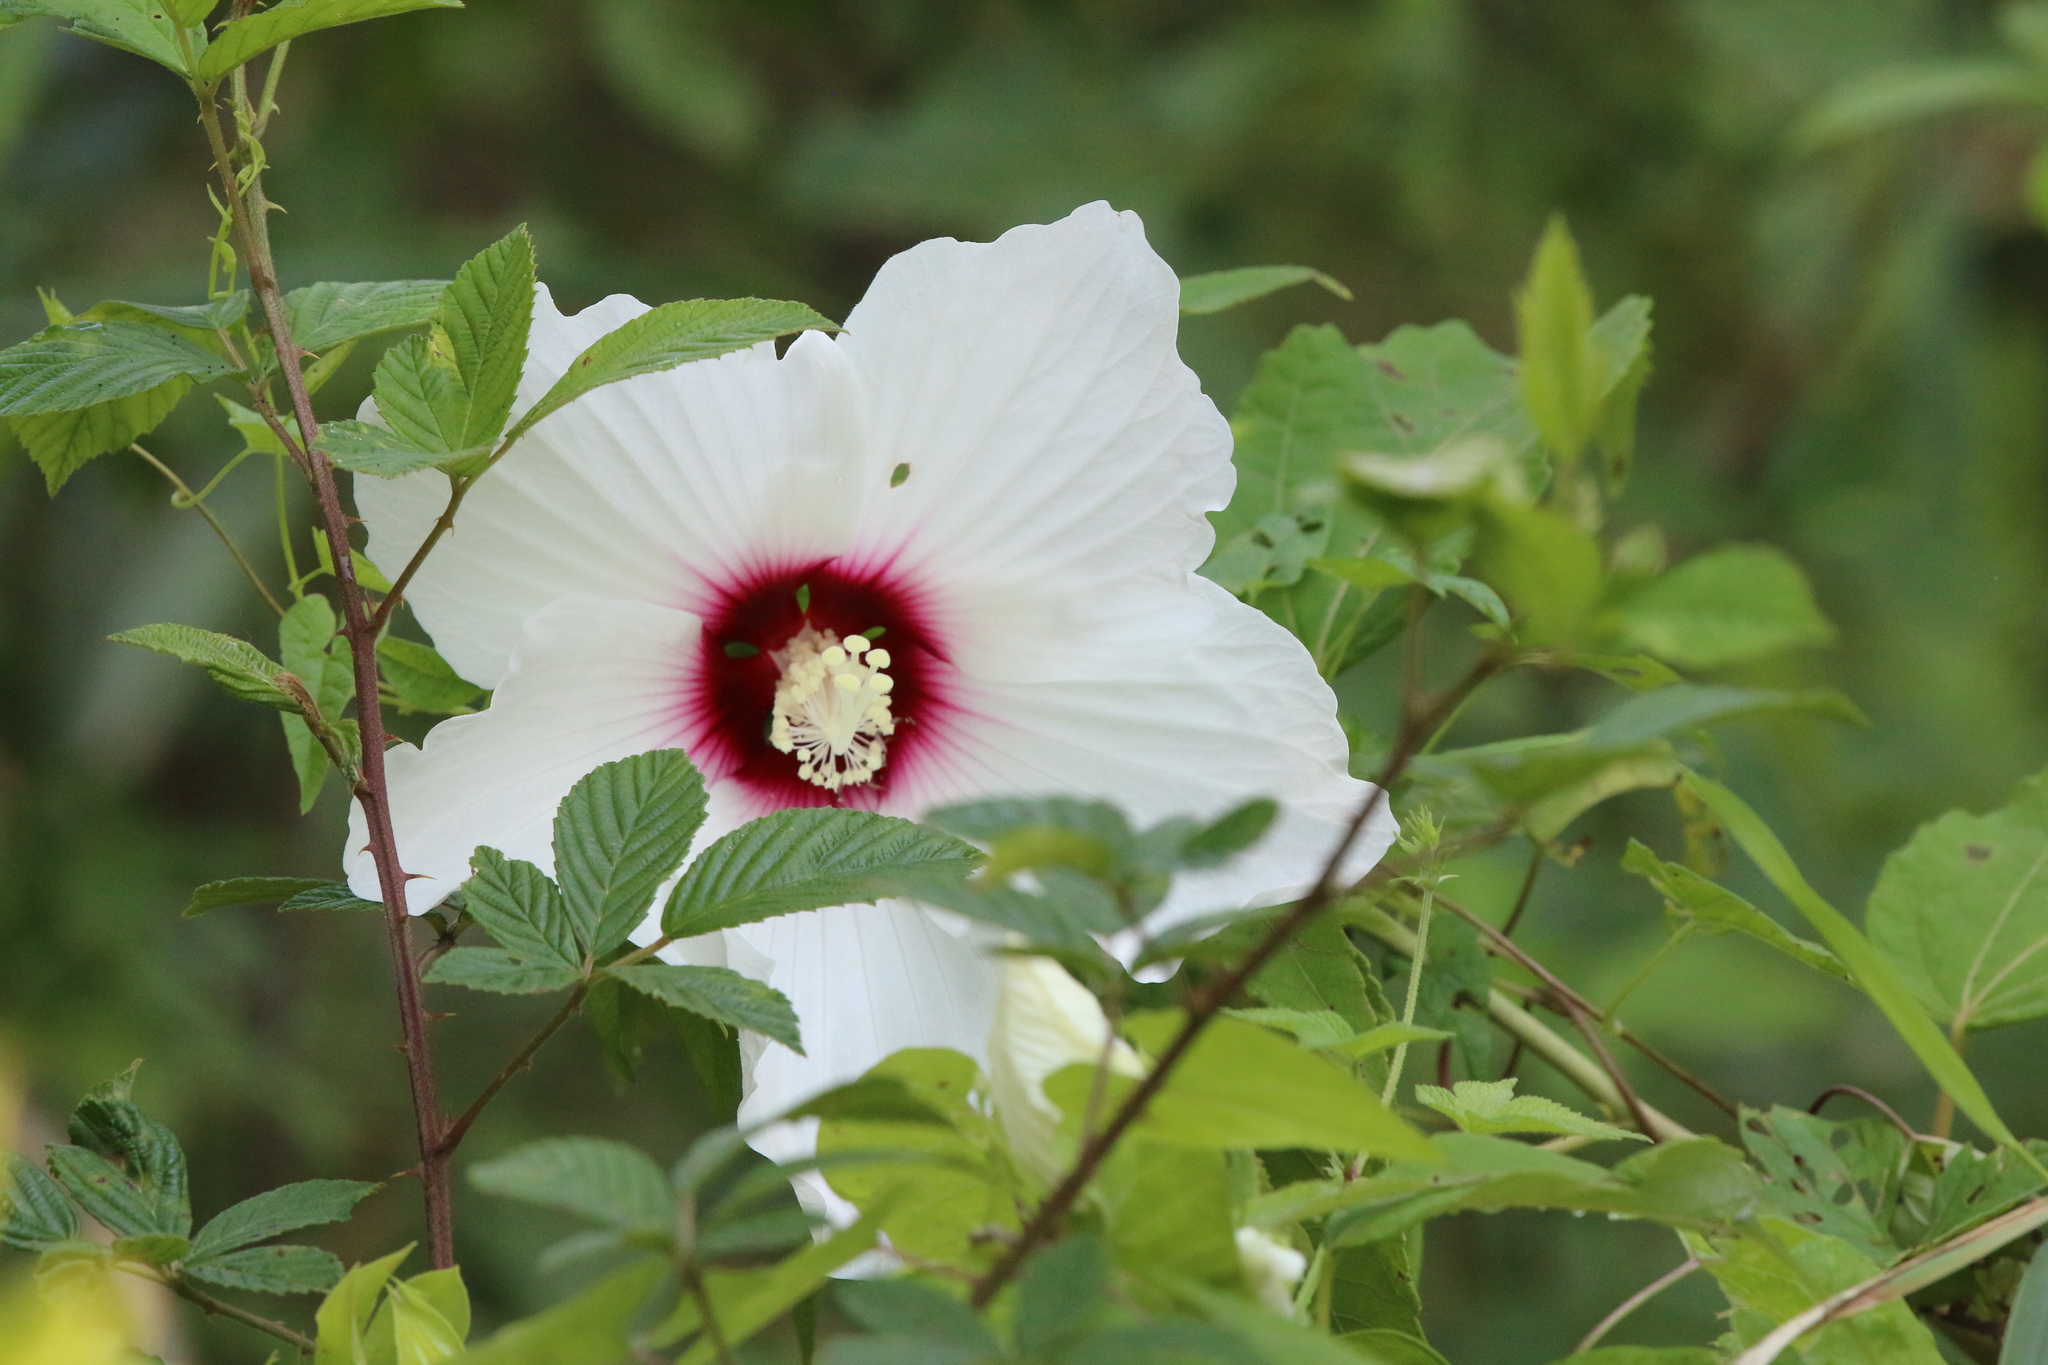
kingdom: Plantae
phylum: Tracheophyta
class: Magnoliopsida
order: Malvales
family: Malvaceae
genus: Hibiscus
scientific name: Hibiscus moscheutos
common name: Common rose-mallow
